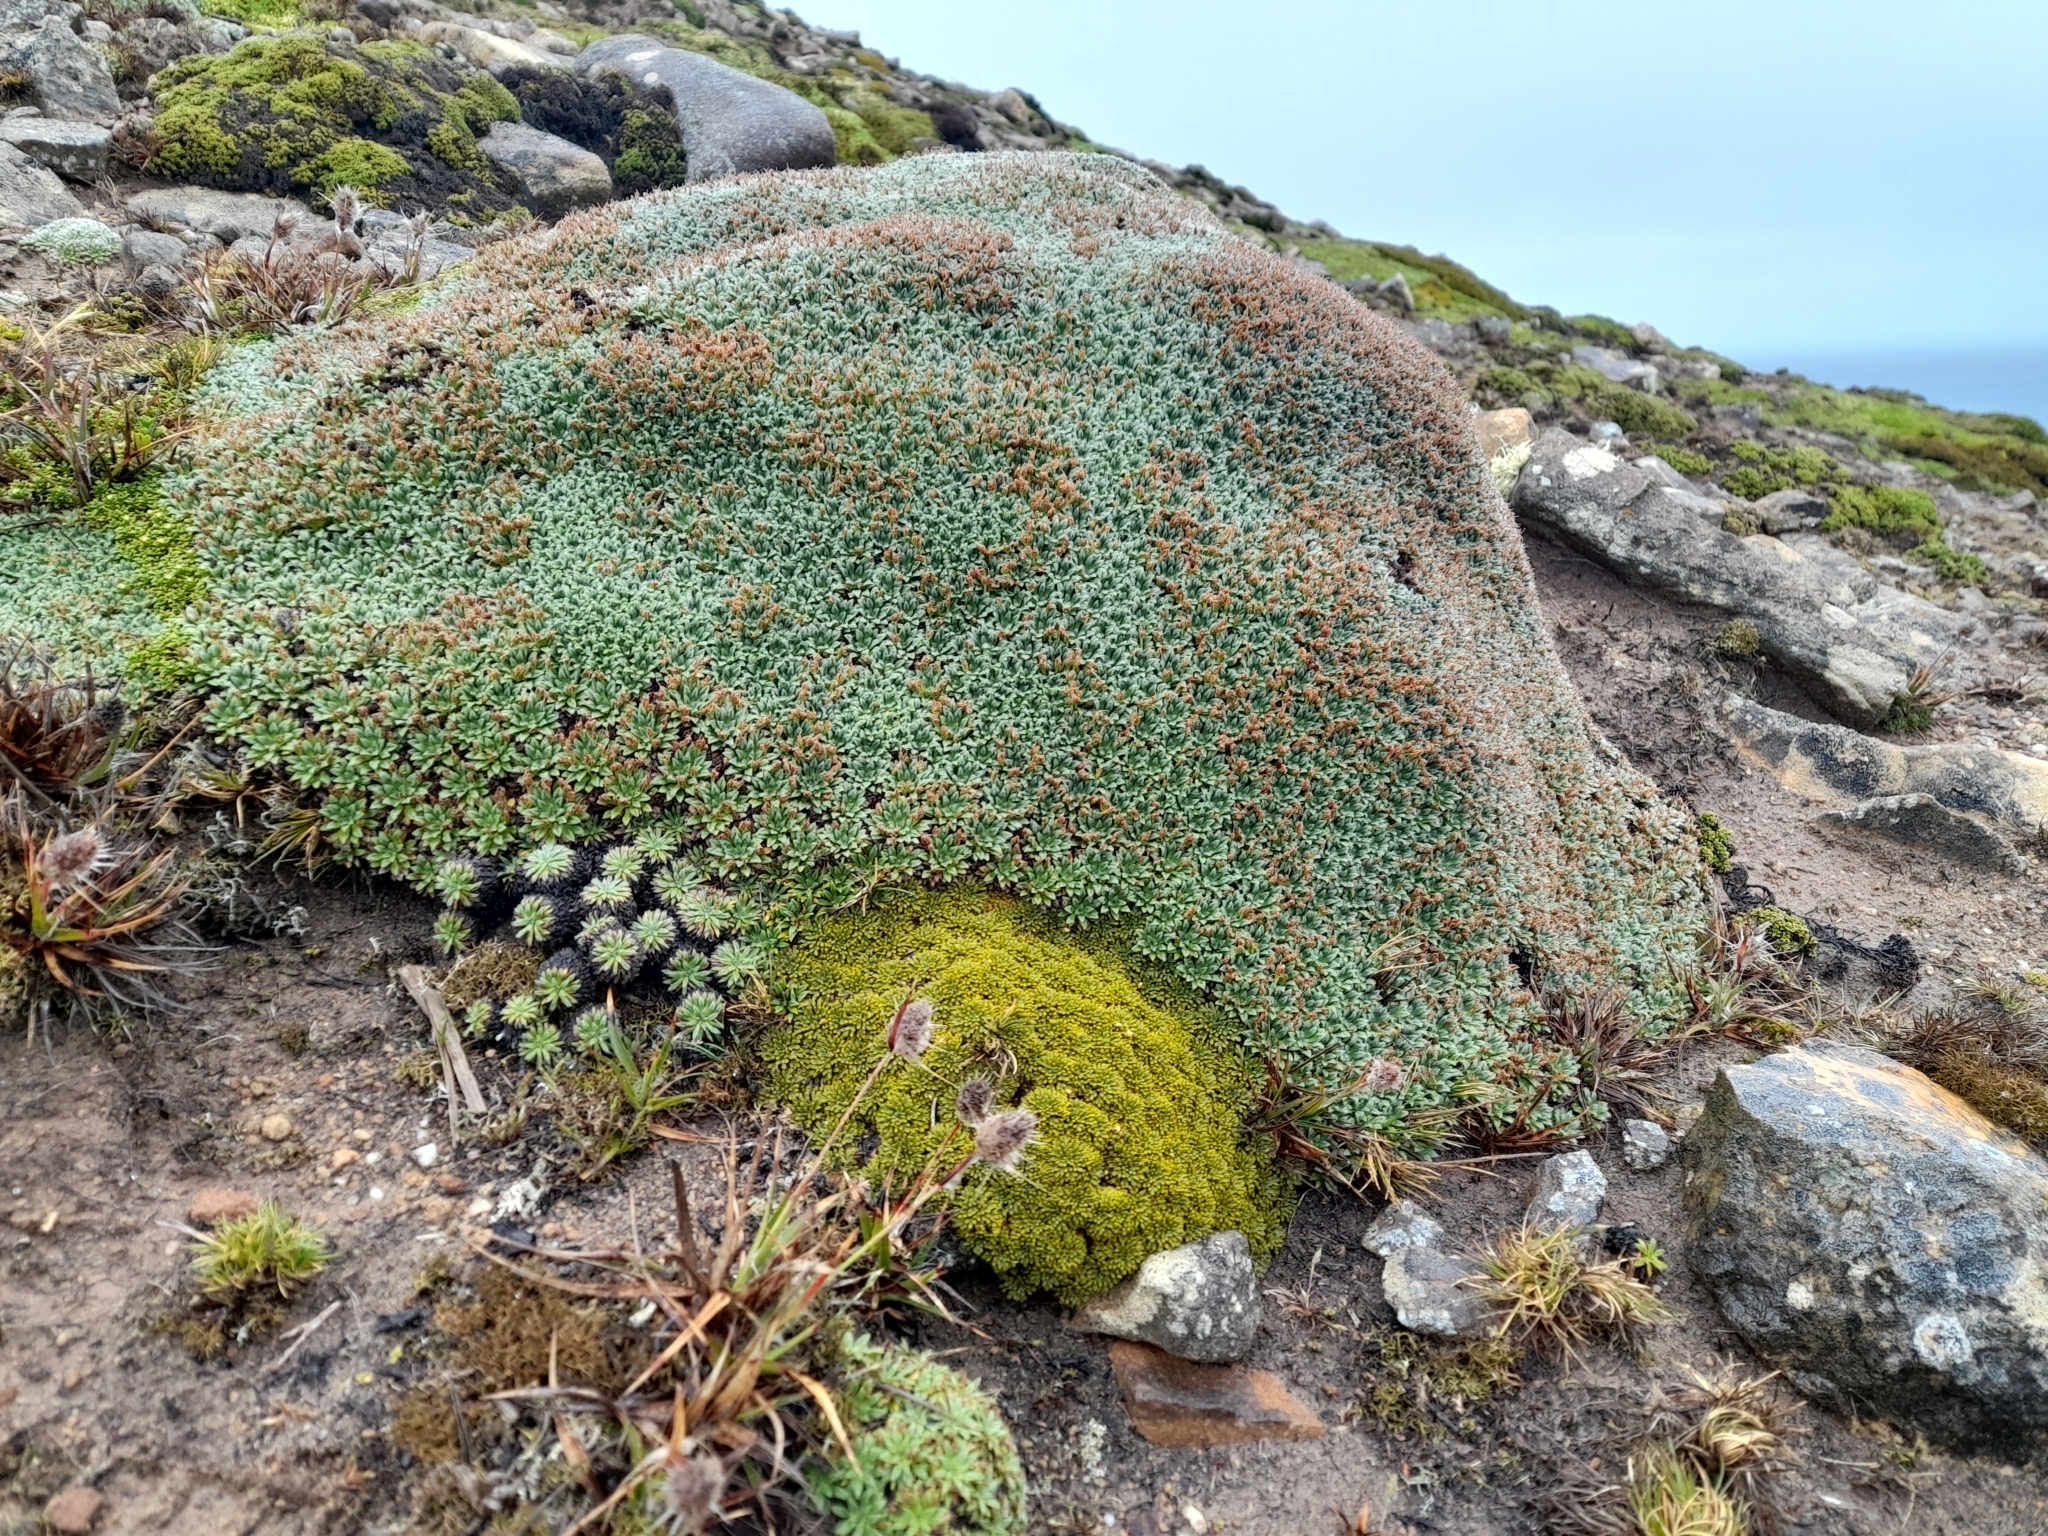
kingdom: Plantae
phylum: Tracheophyta
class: Magnoliopsida
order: Lamiales
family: Plantaginaceae
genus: Plantago
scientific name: Plantago moorei
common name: Moore's plantain
